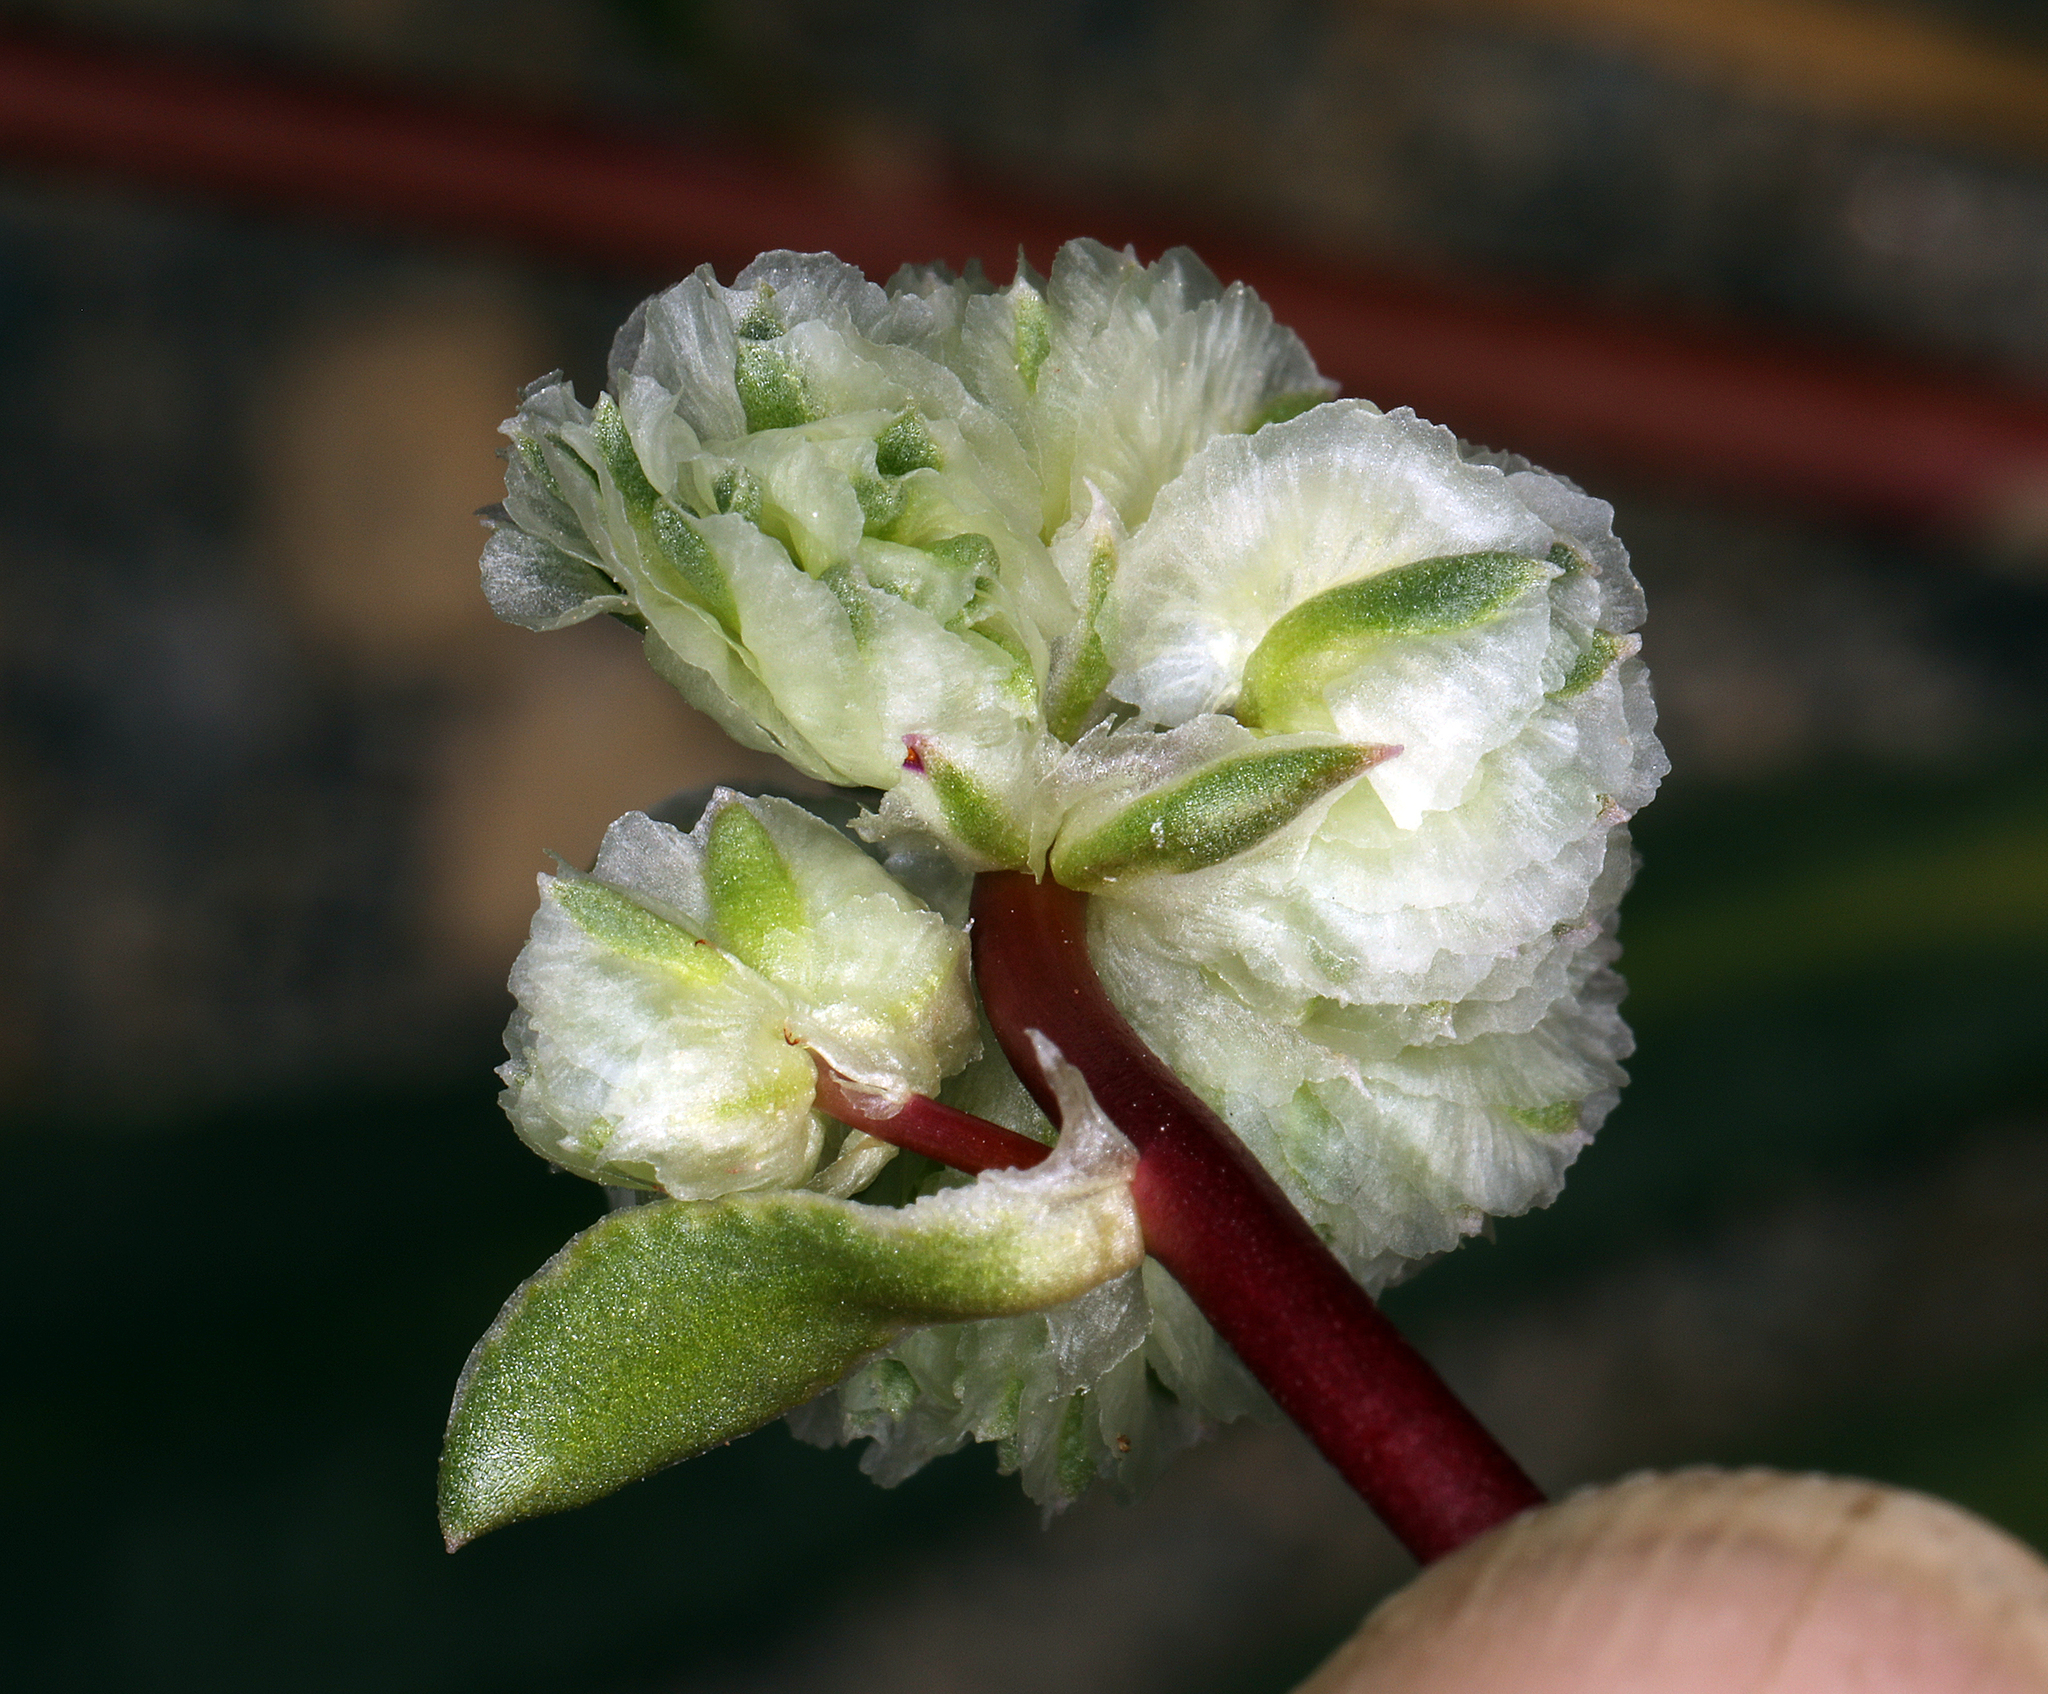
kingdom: Plantae
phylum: Tracheophyta
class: Magnoliopsida
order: Caryophyllales
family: Montiaceae
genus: Calyptridium
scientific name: Calyptridium monospermum
